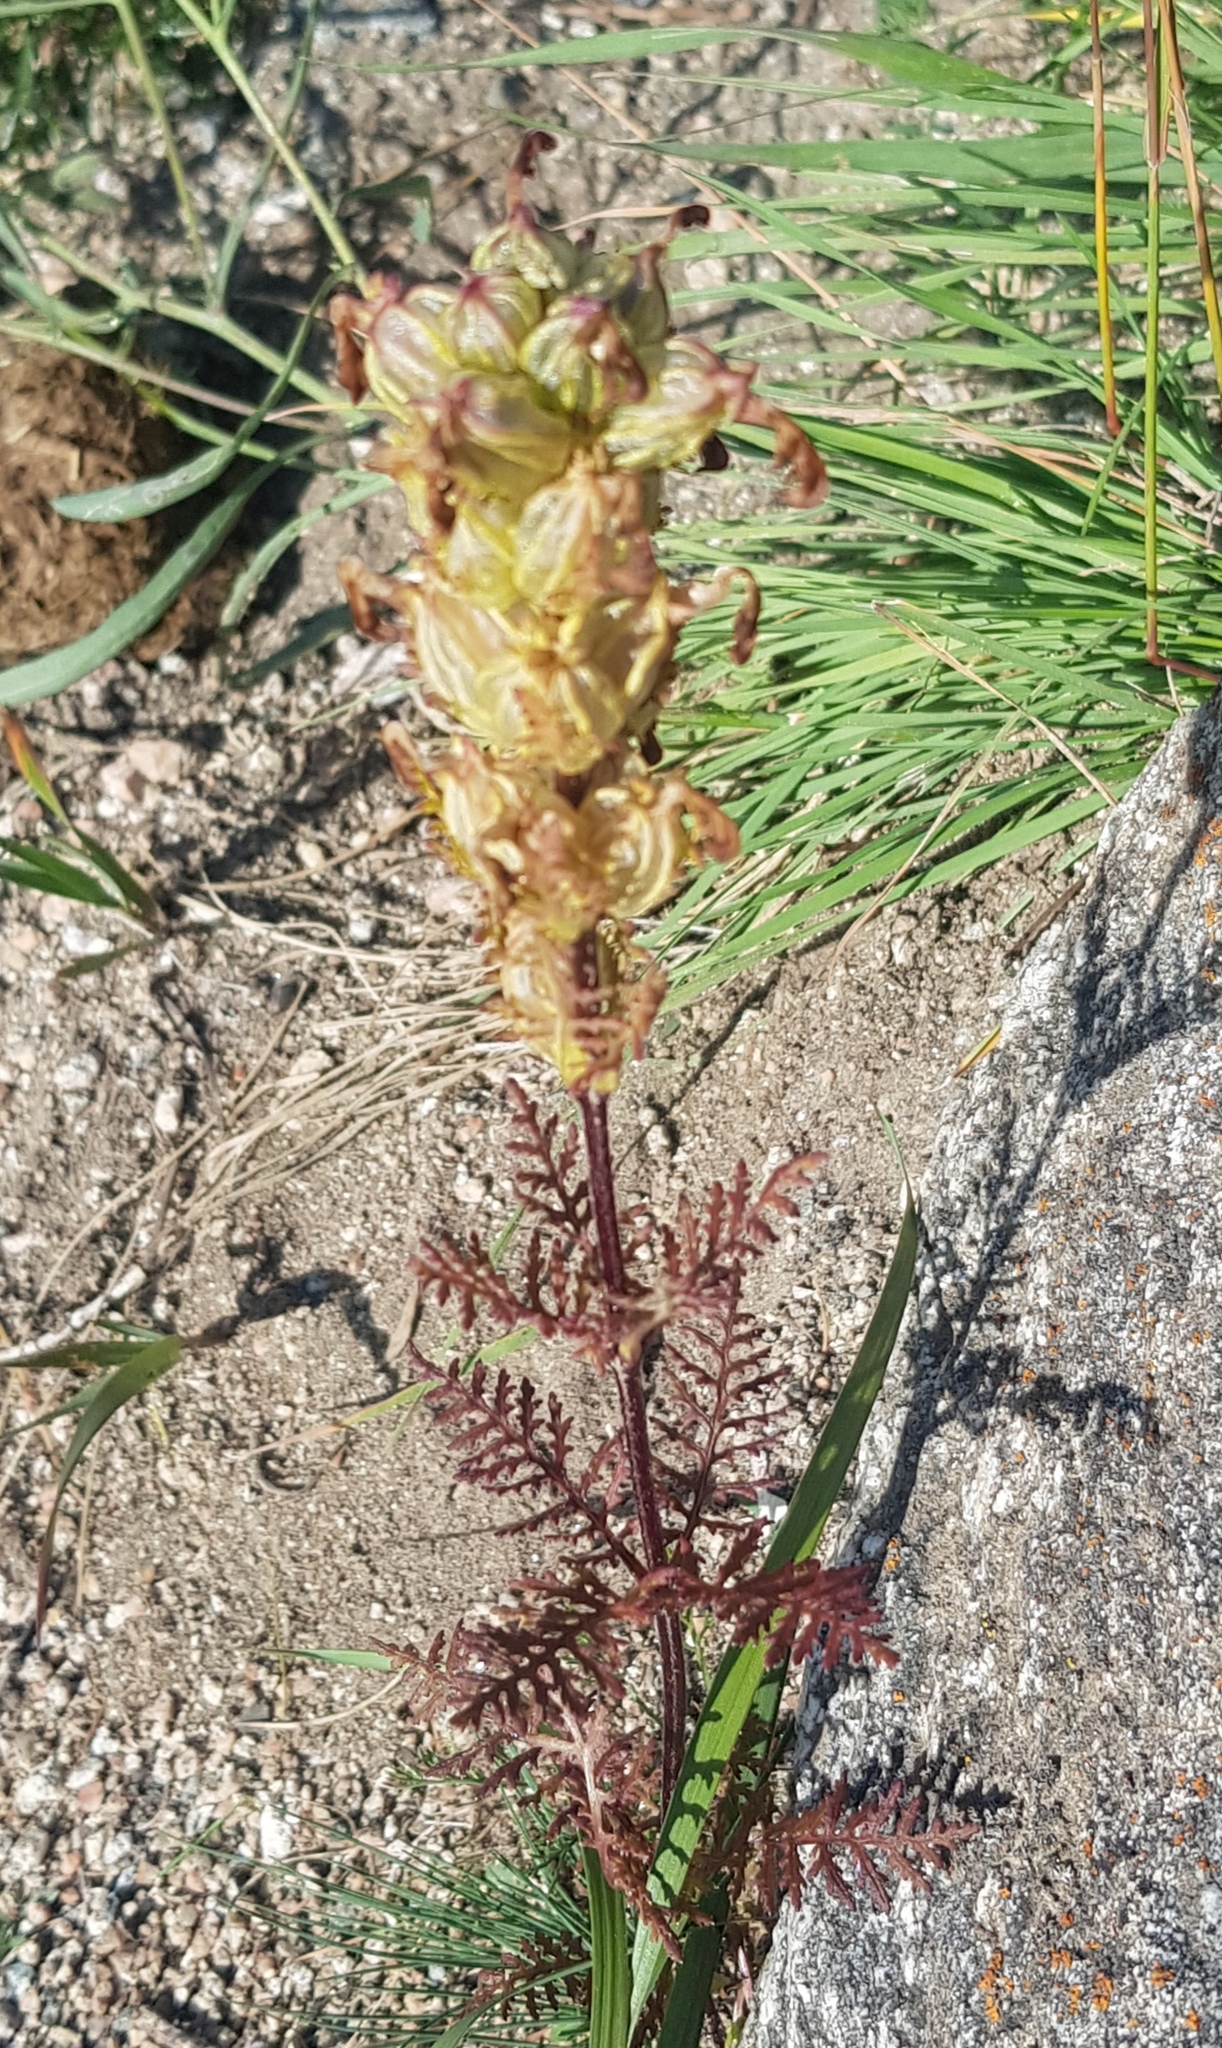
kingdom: Plantae
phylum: Tracheophyta
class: Magnoliopsida
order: Lamiales
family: Orobanchaceae
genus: Pedicularis
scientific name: Pedicularis myriophylla
